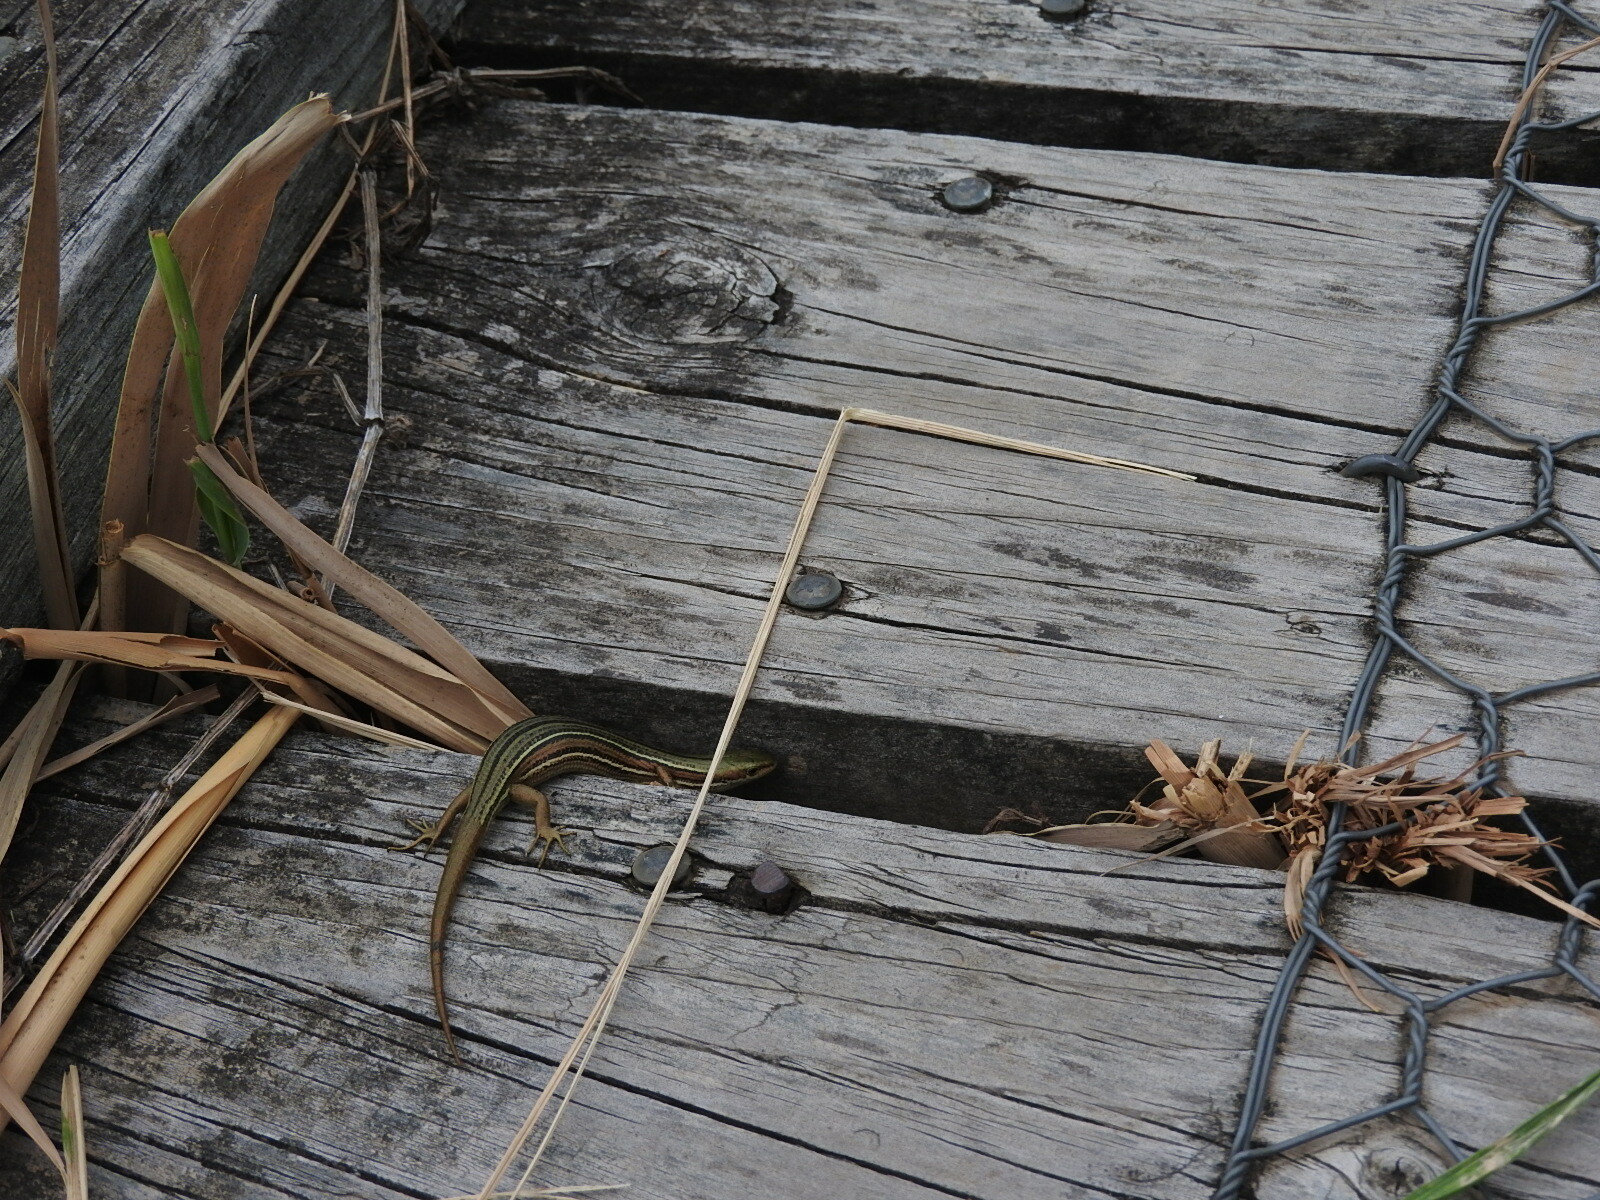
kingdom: Animalia
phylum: Chordata
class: Squamata
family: Scincidae
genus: Pseudemoia
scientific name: Pseudemoia rawlinsoni
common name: Rawlinson's window-eyed skink
